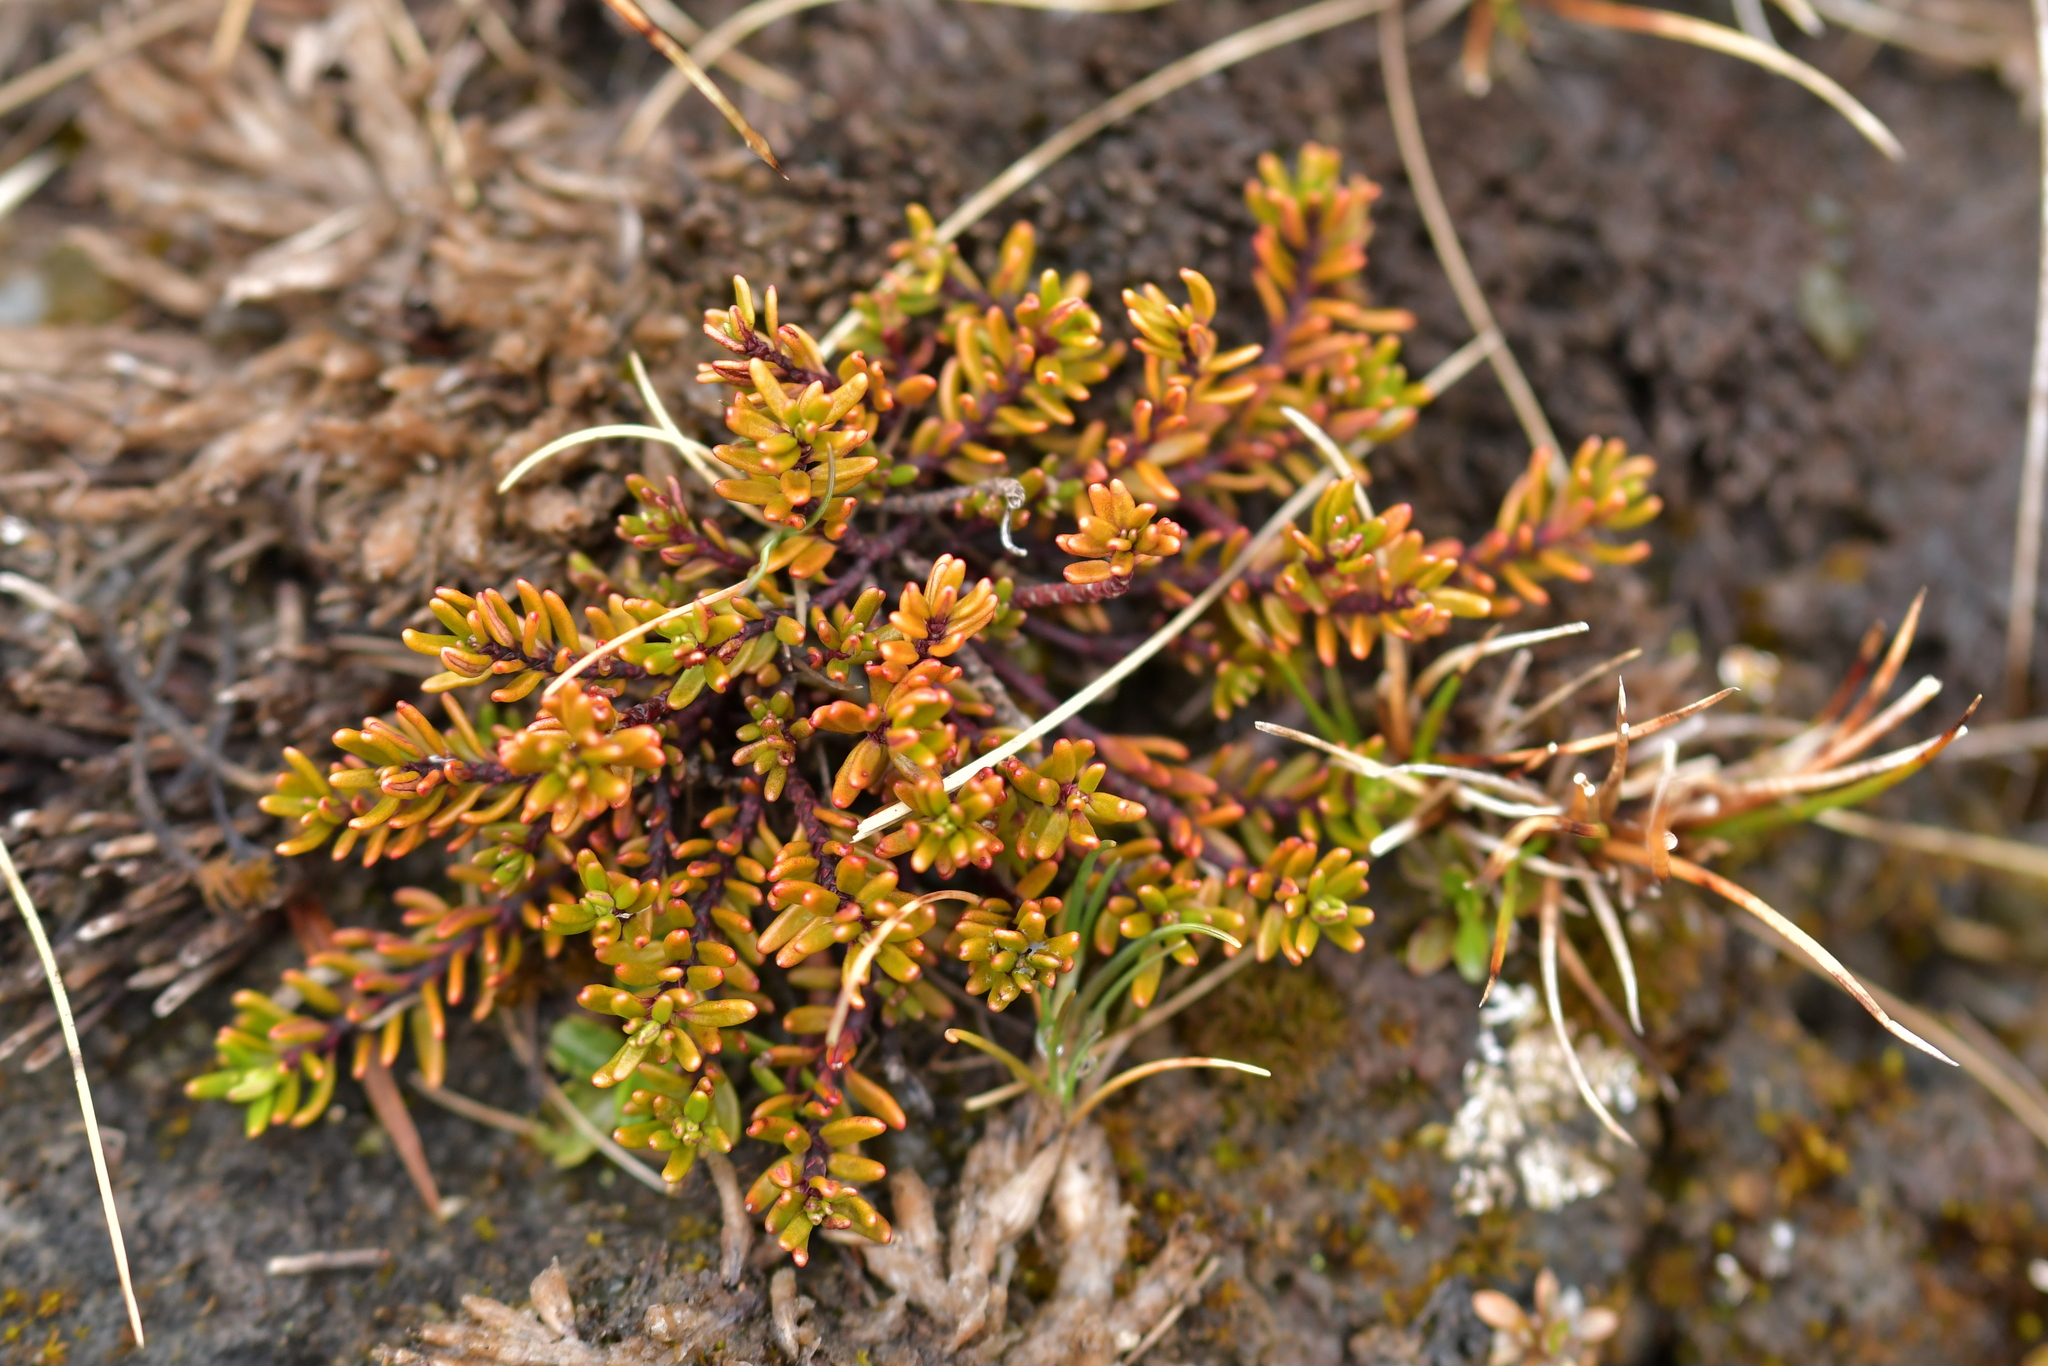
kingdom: Plantae
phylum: Tracheophyta
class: Magnoliopsida
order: Malpighiales
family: Phyllanthaceae
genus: Poranthera
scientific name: Poranthera alpina
